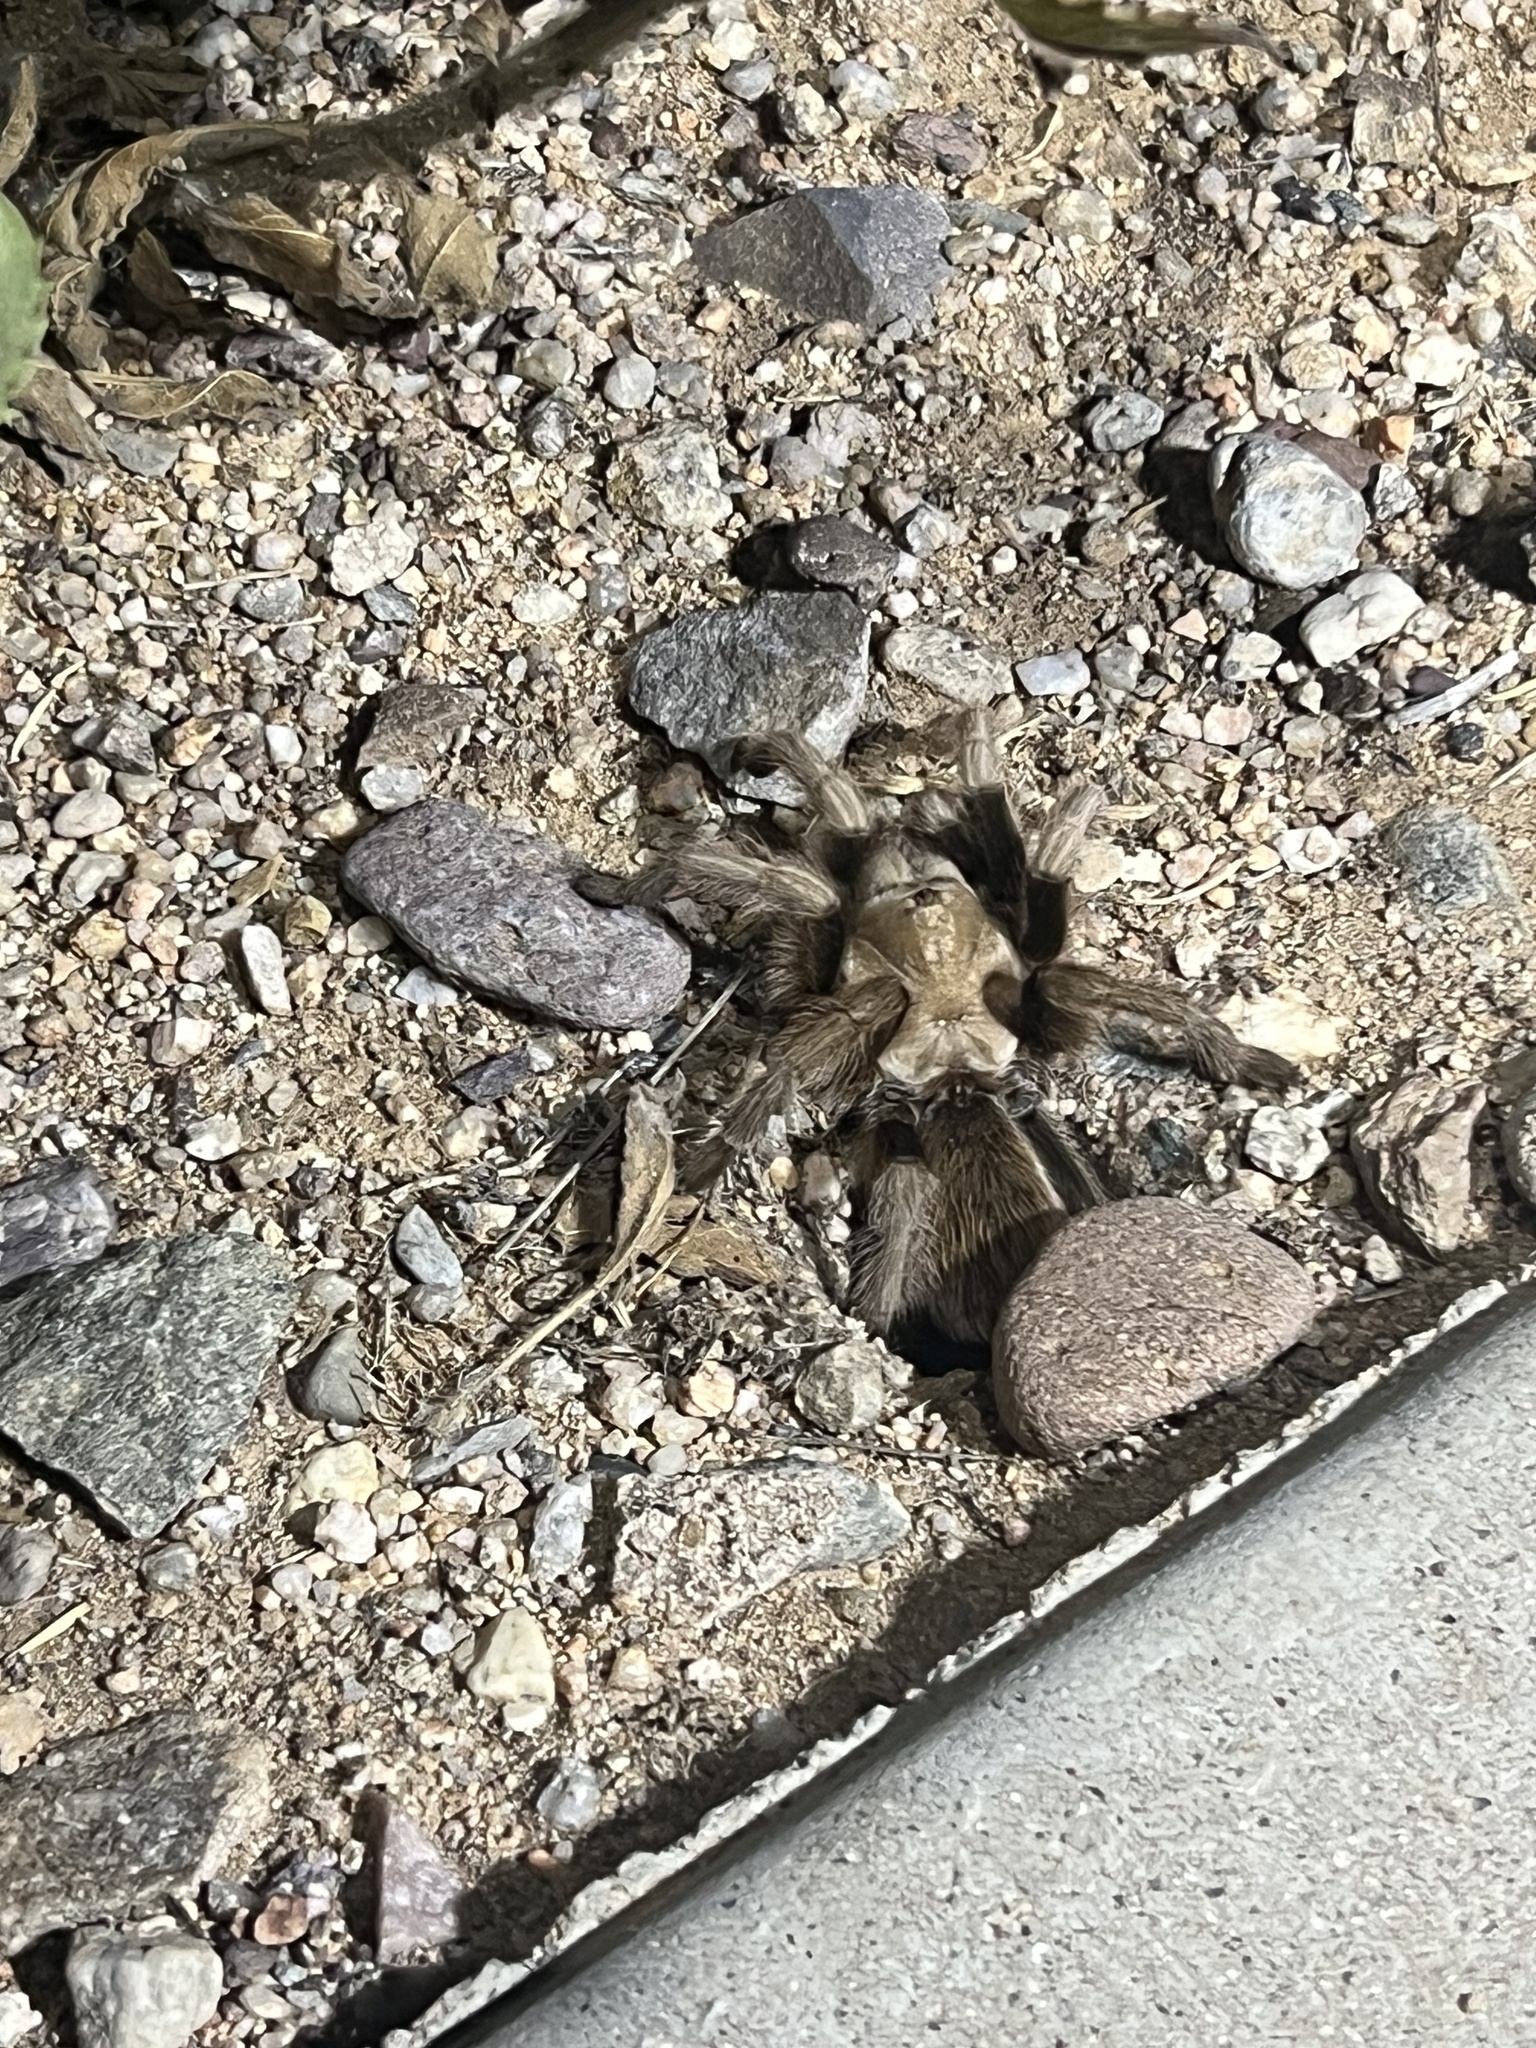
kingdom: Animalia
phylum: Arthropoda
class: Arachnida
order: Araneae
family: Theraphosidae
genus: Aphonopelma
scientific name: Aphonopelma chalcodes
